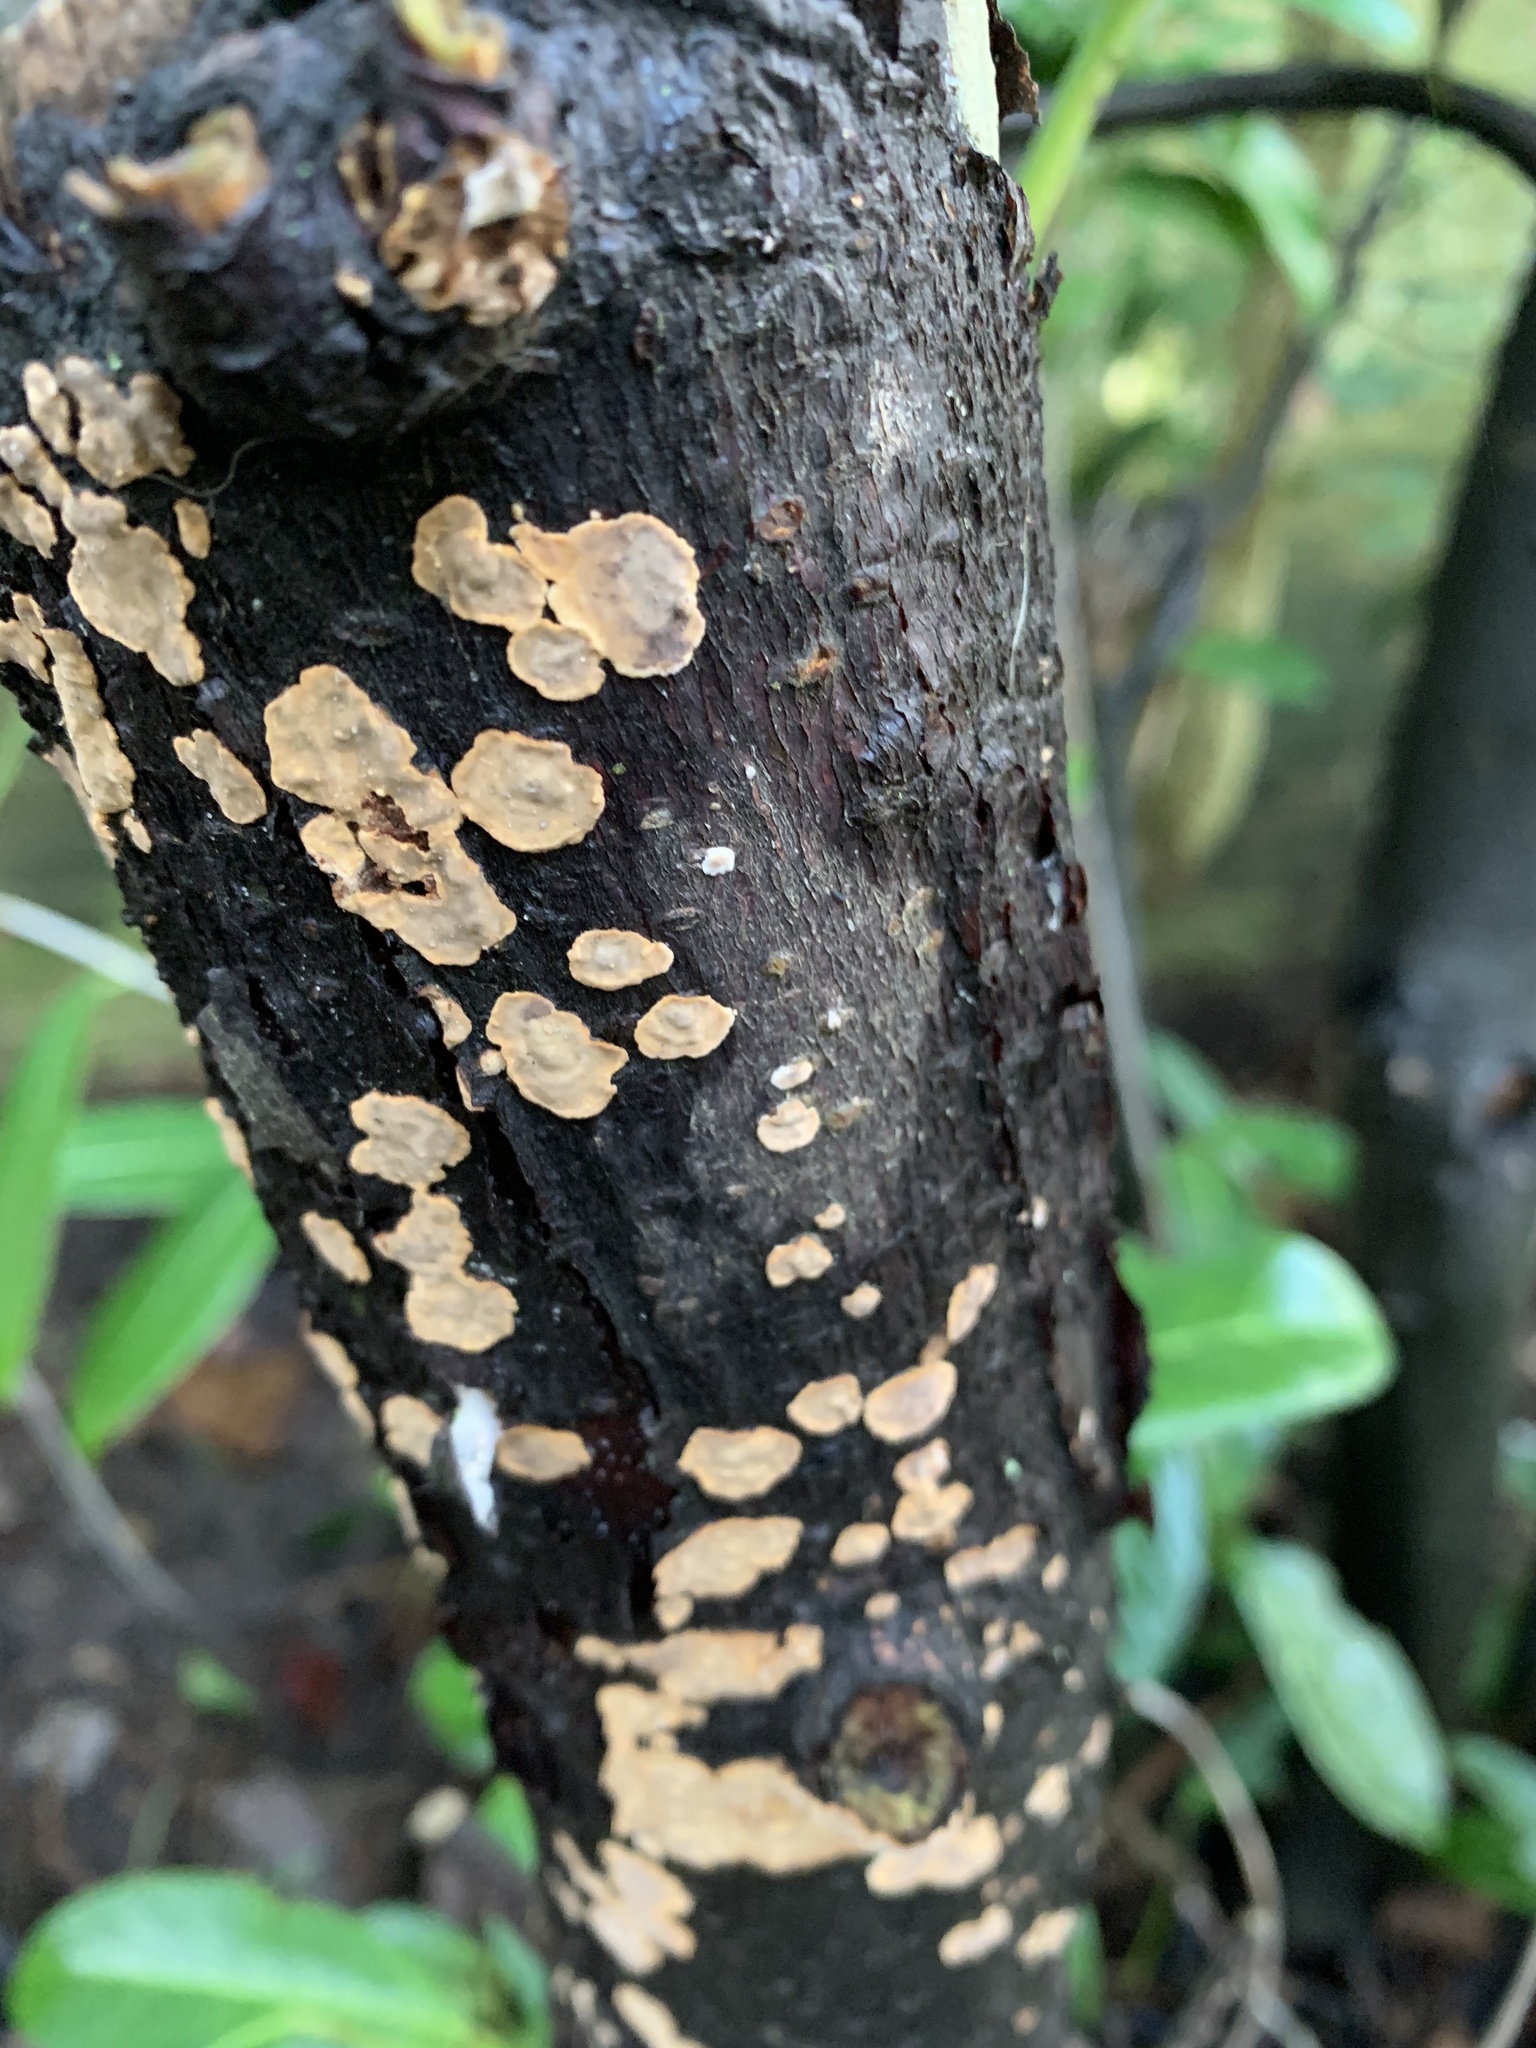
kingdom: Fungi
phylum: Basidiomycota
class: Agaricomycetes
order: Russulales
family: Stereaceae
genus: Stereum
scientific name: Stereum rugosum
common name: Bleeding broadleaf crust
